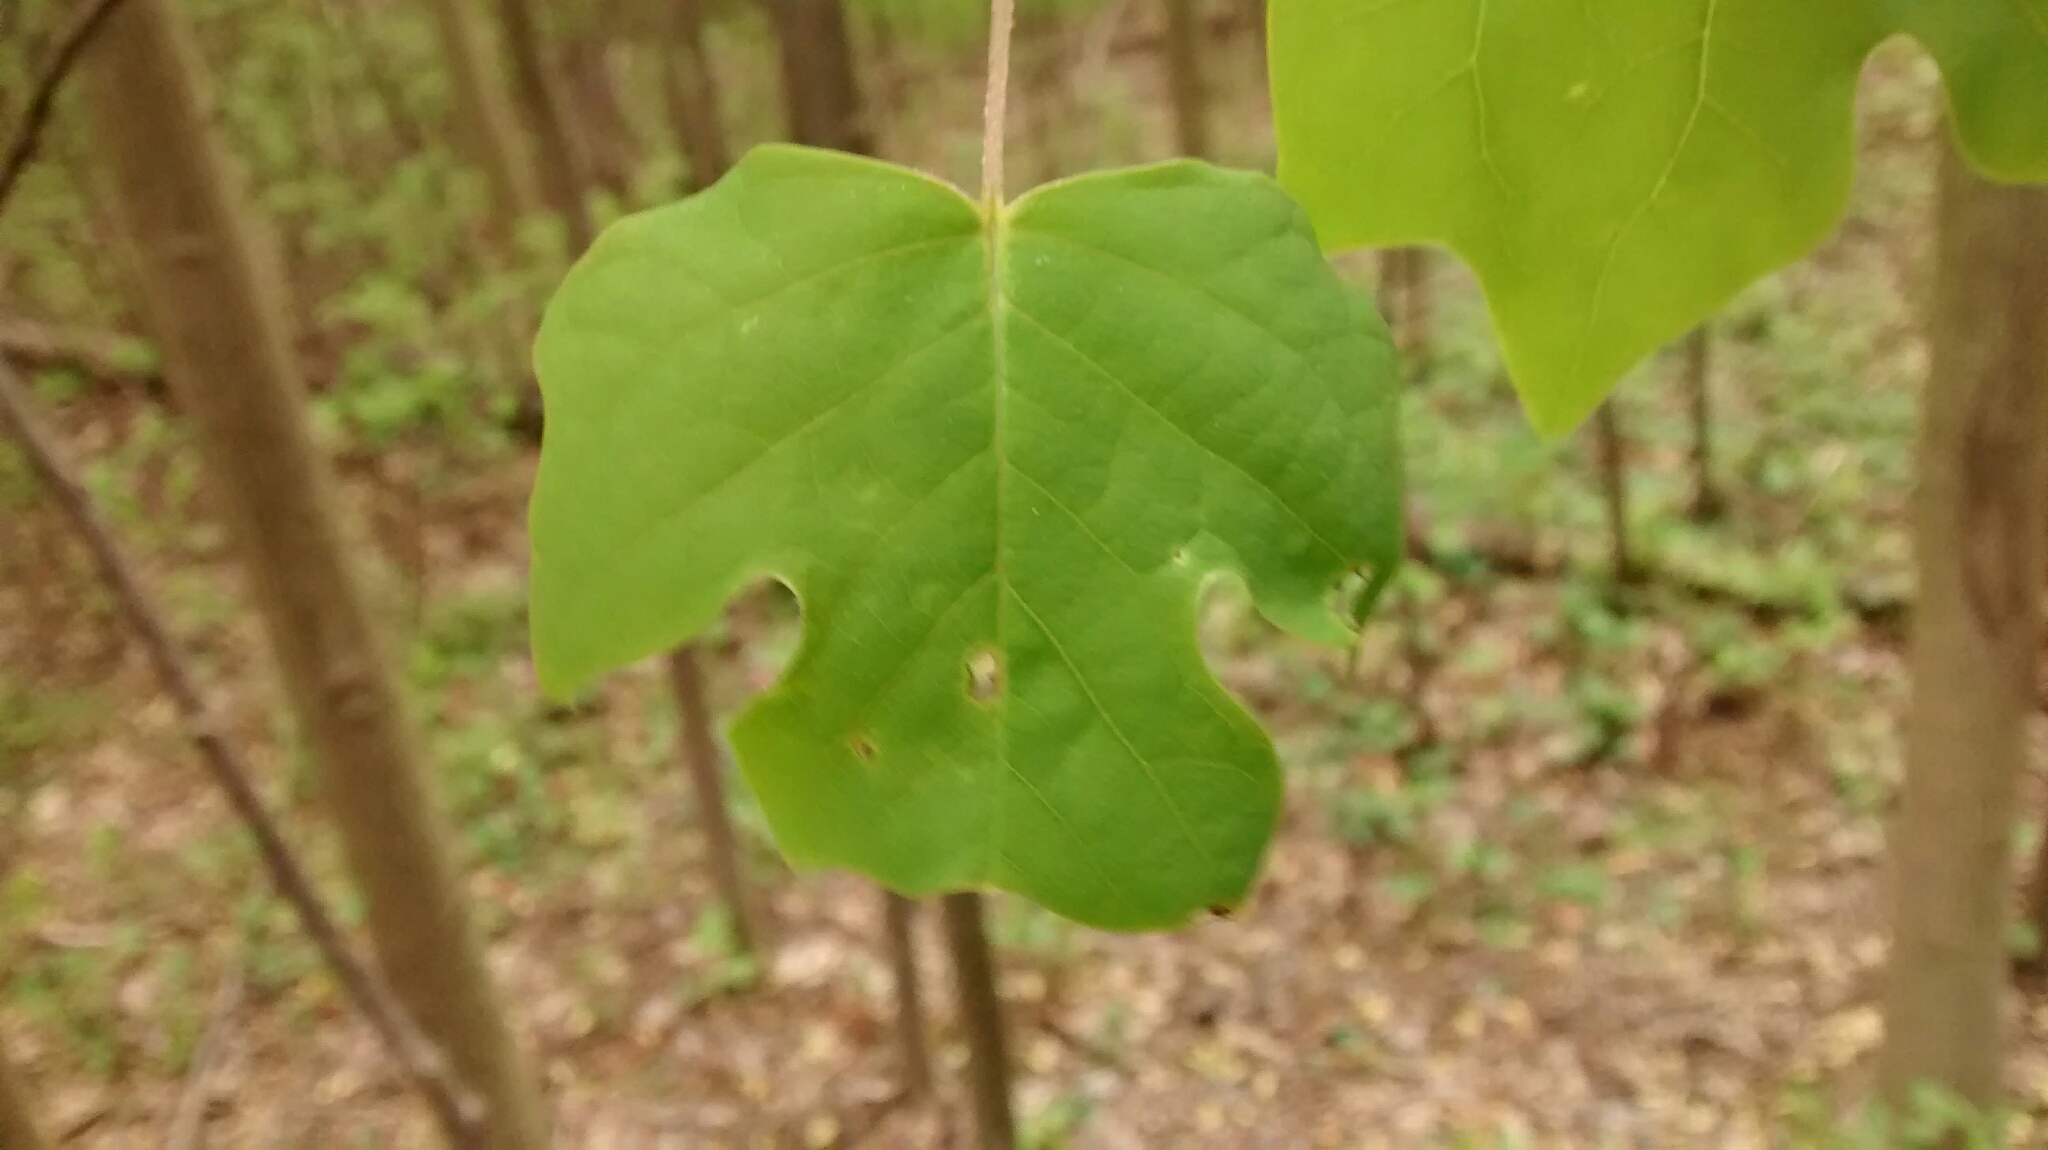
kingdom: Plantae
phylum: Tracheophyta
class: Magnoliopsida
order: Magnoliales
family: Magnoliaceae
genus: Liriodendron
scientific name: Liriodendron tulipifera
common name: Tulip tree
